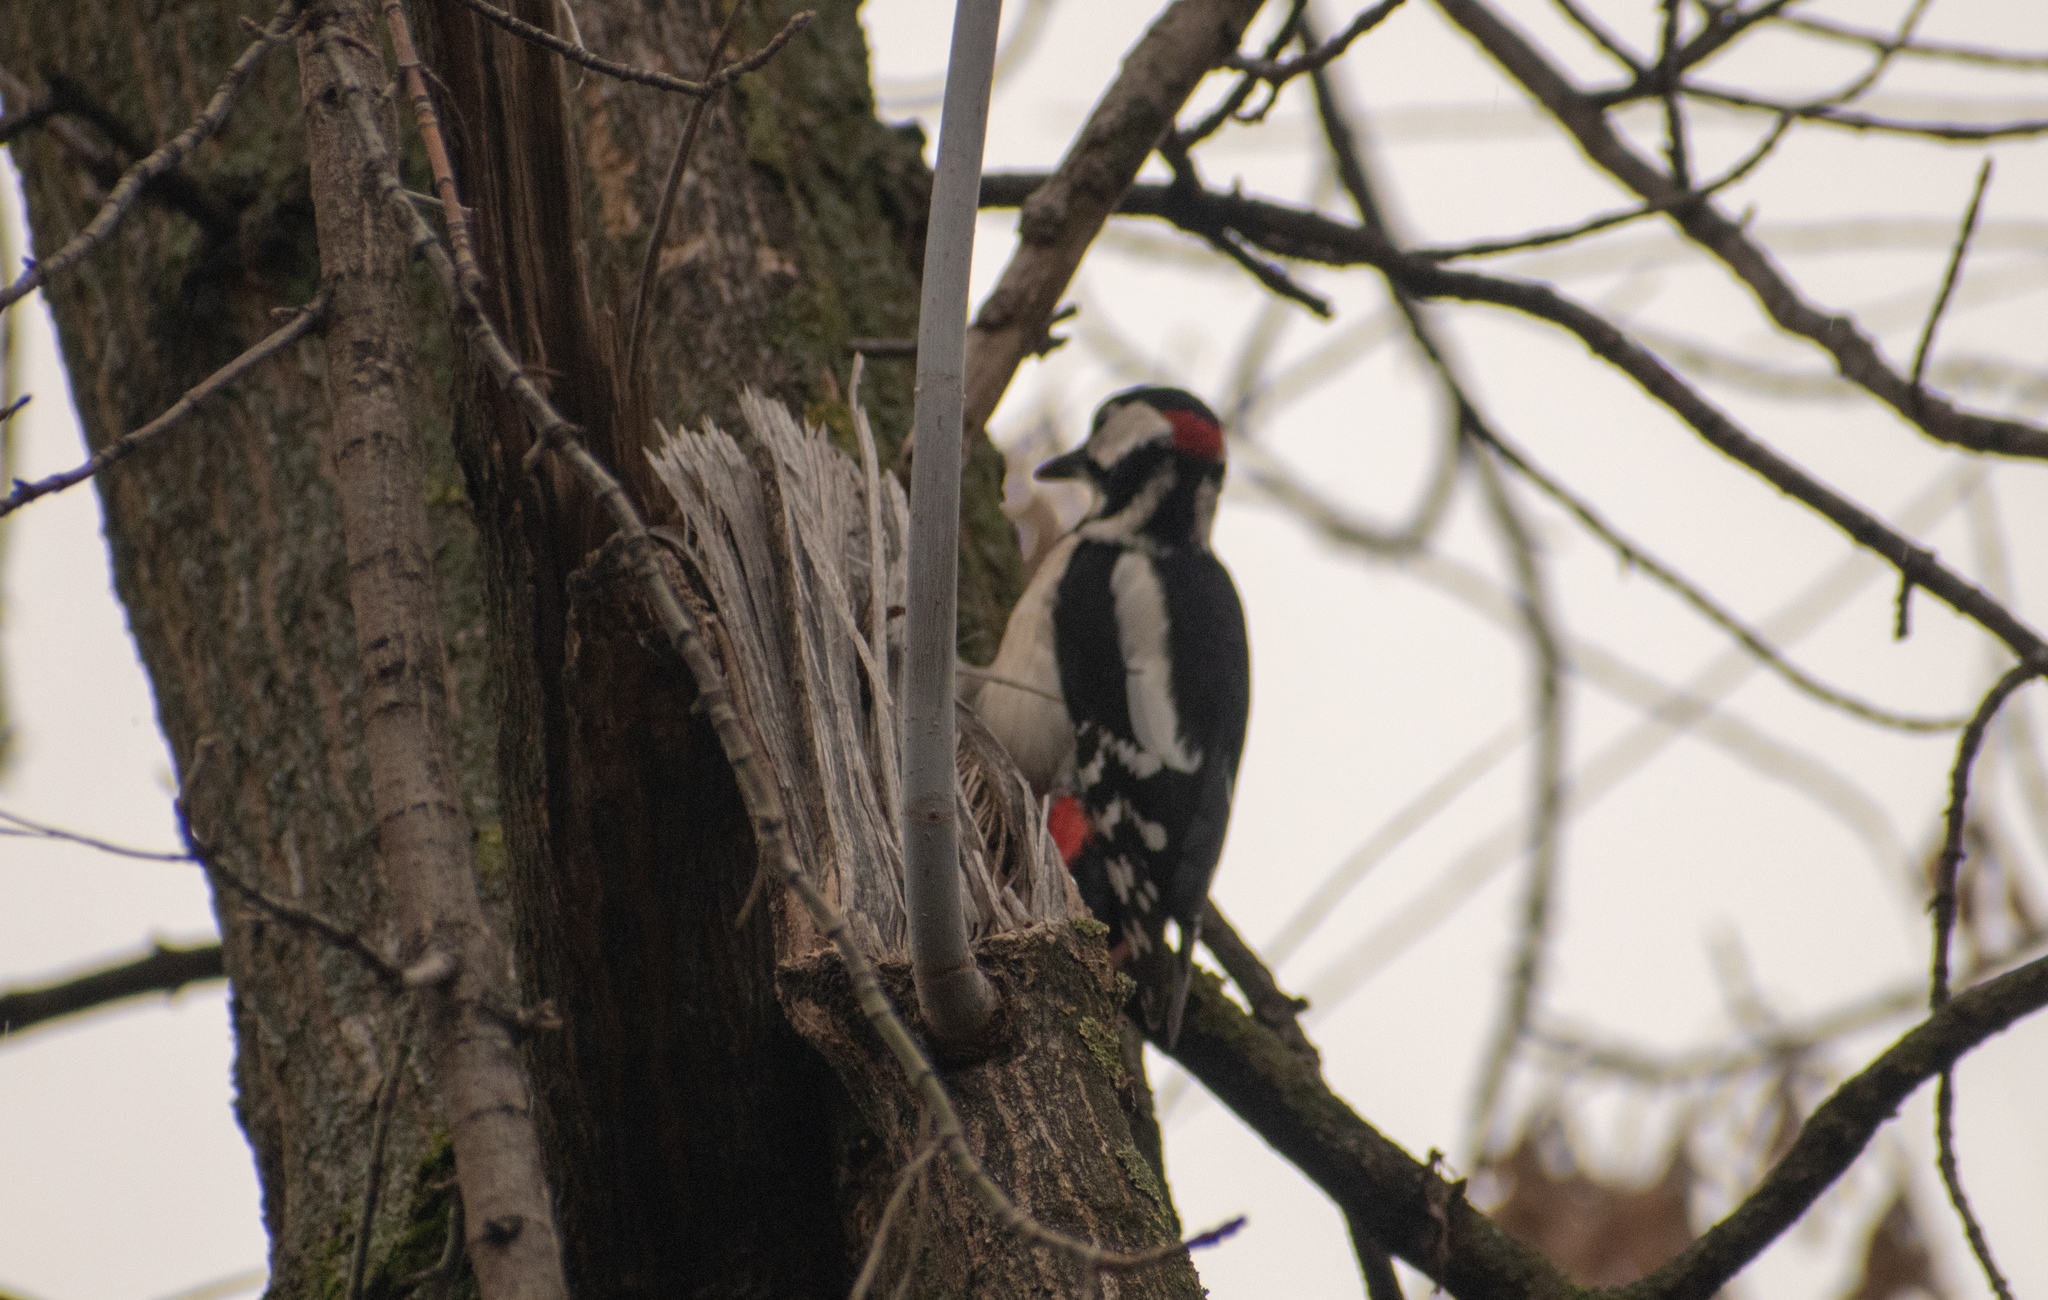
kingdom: Animalia
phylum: Chordata
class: Aves
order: Piciformes
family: Picidae
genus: Dendrocopos
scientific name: Dendrocopos major
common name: Great spotted woodpecker
